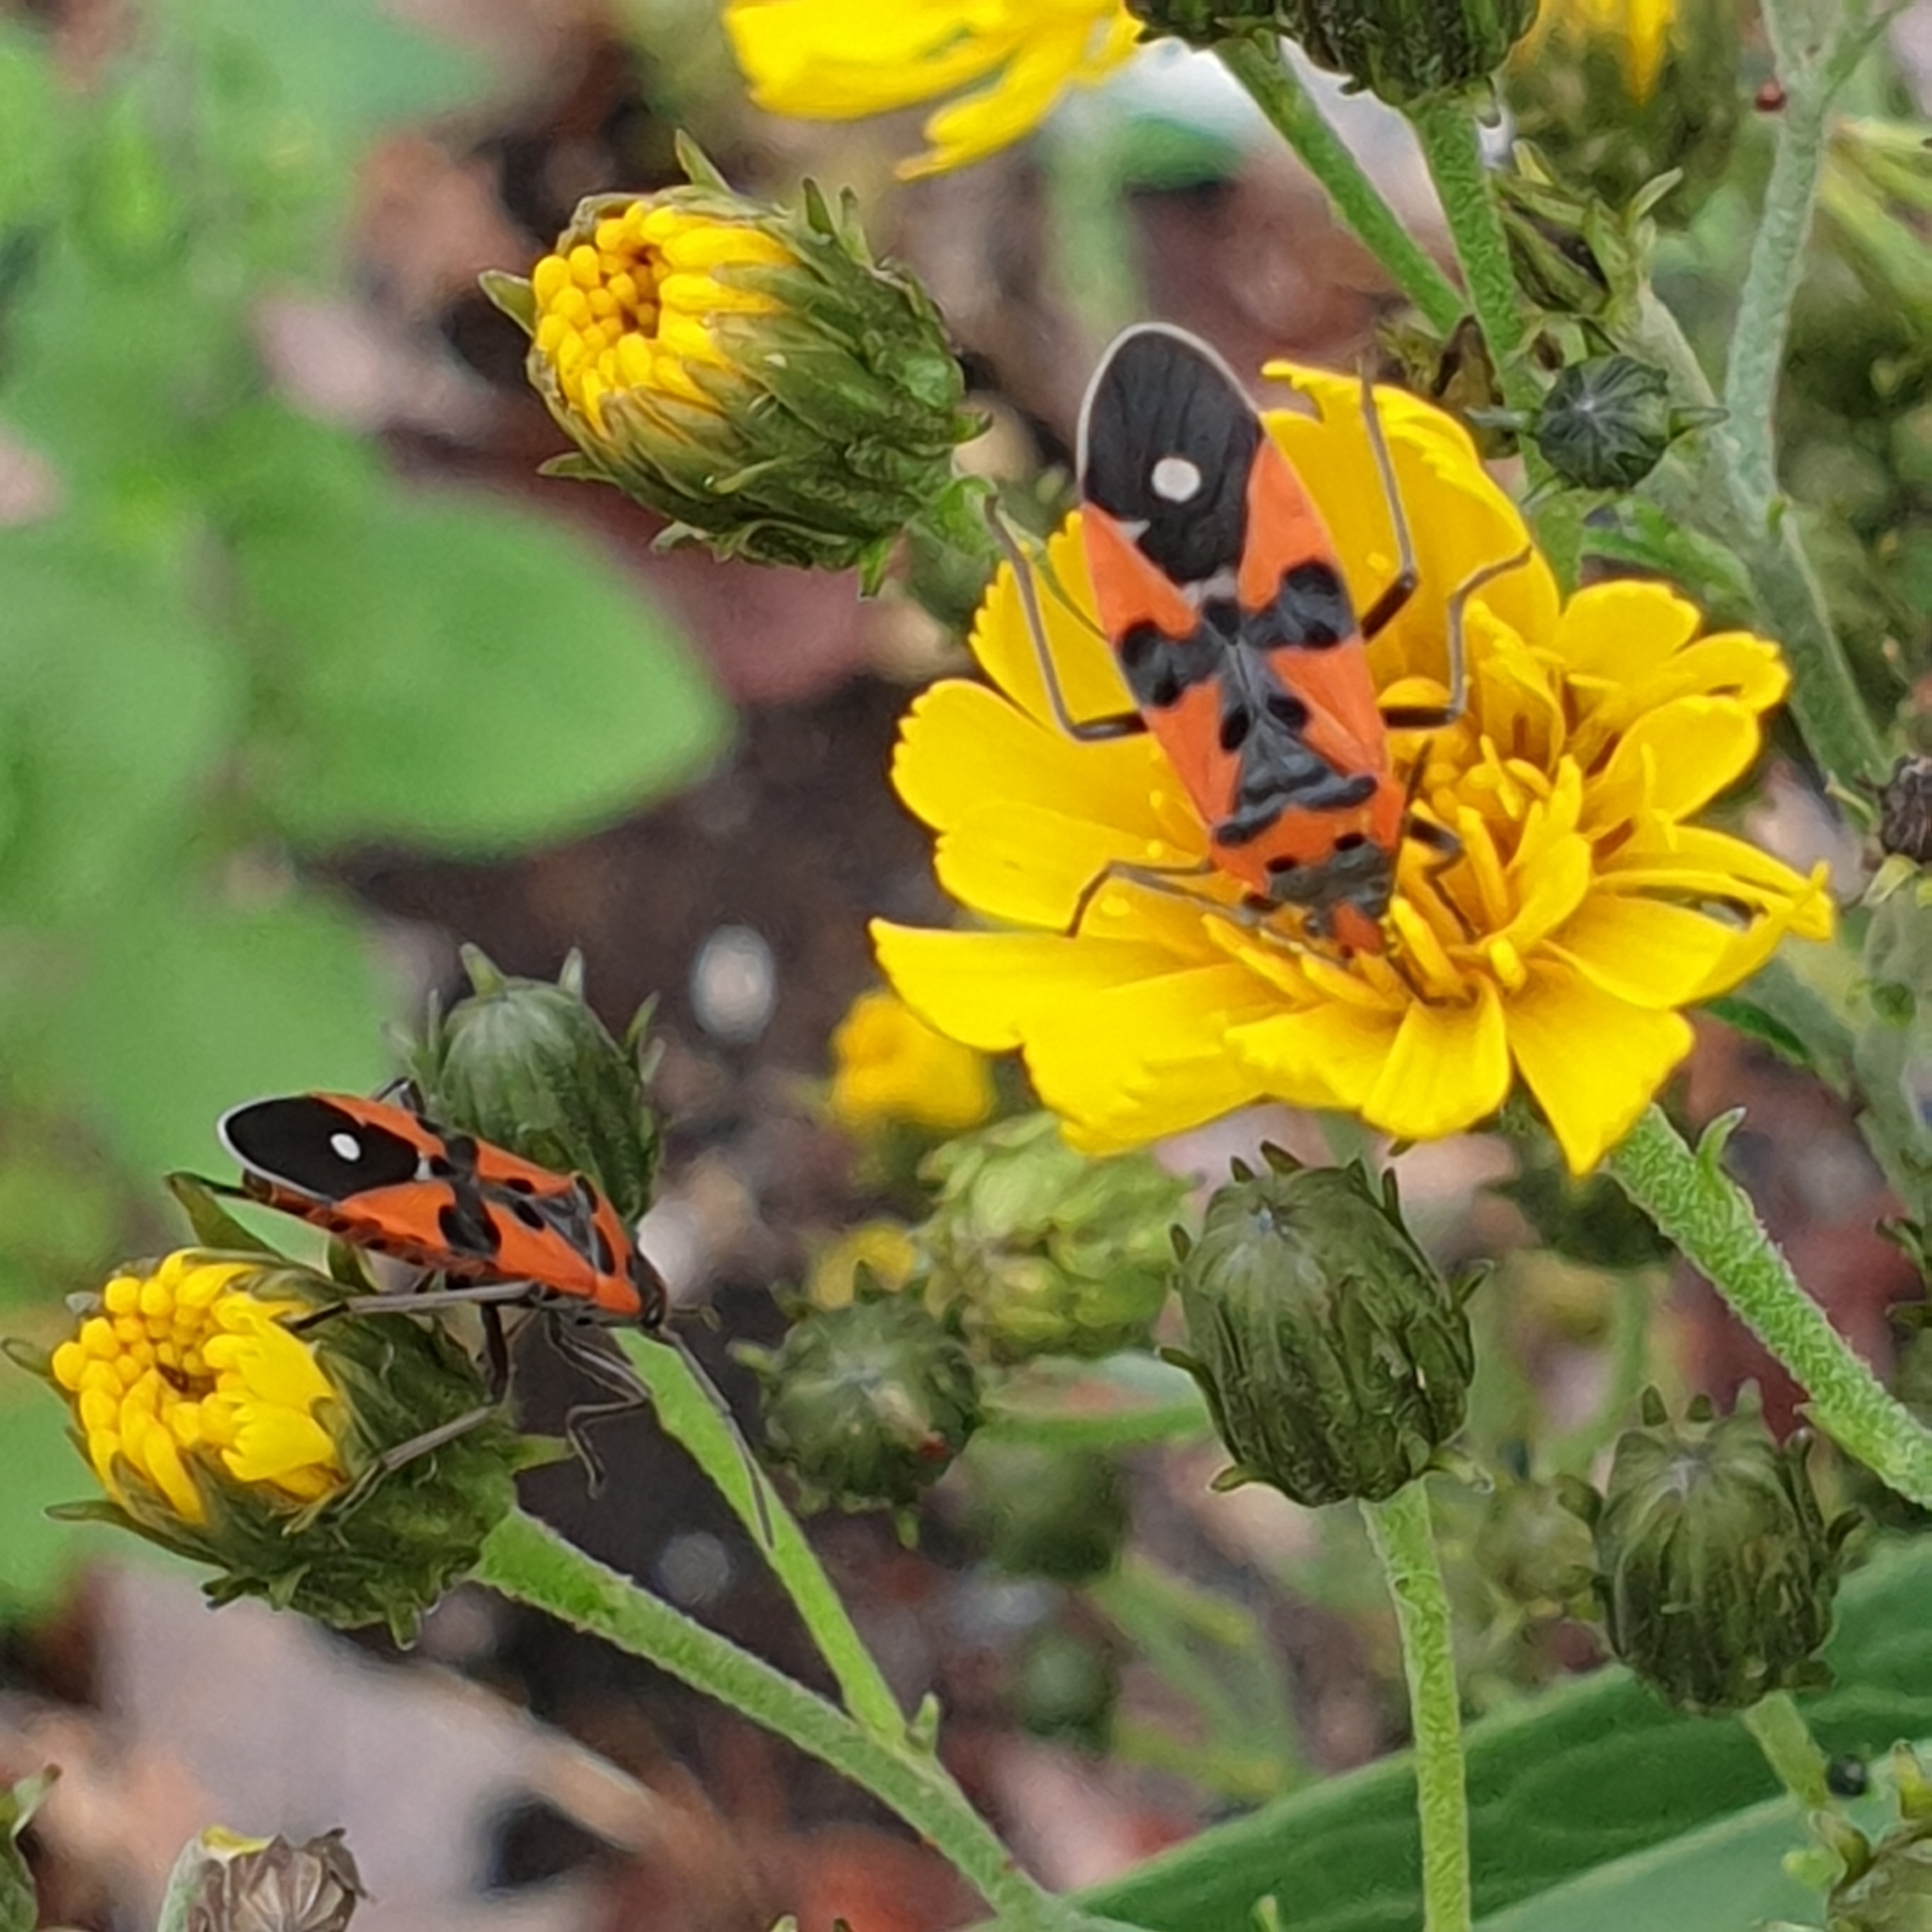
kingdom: Animalia
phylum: Arthropoda
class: Insecta
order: Hemiptera
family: Lygaeidae
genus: Lygaeus
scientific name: Lygaeus equestris
